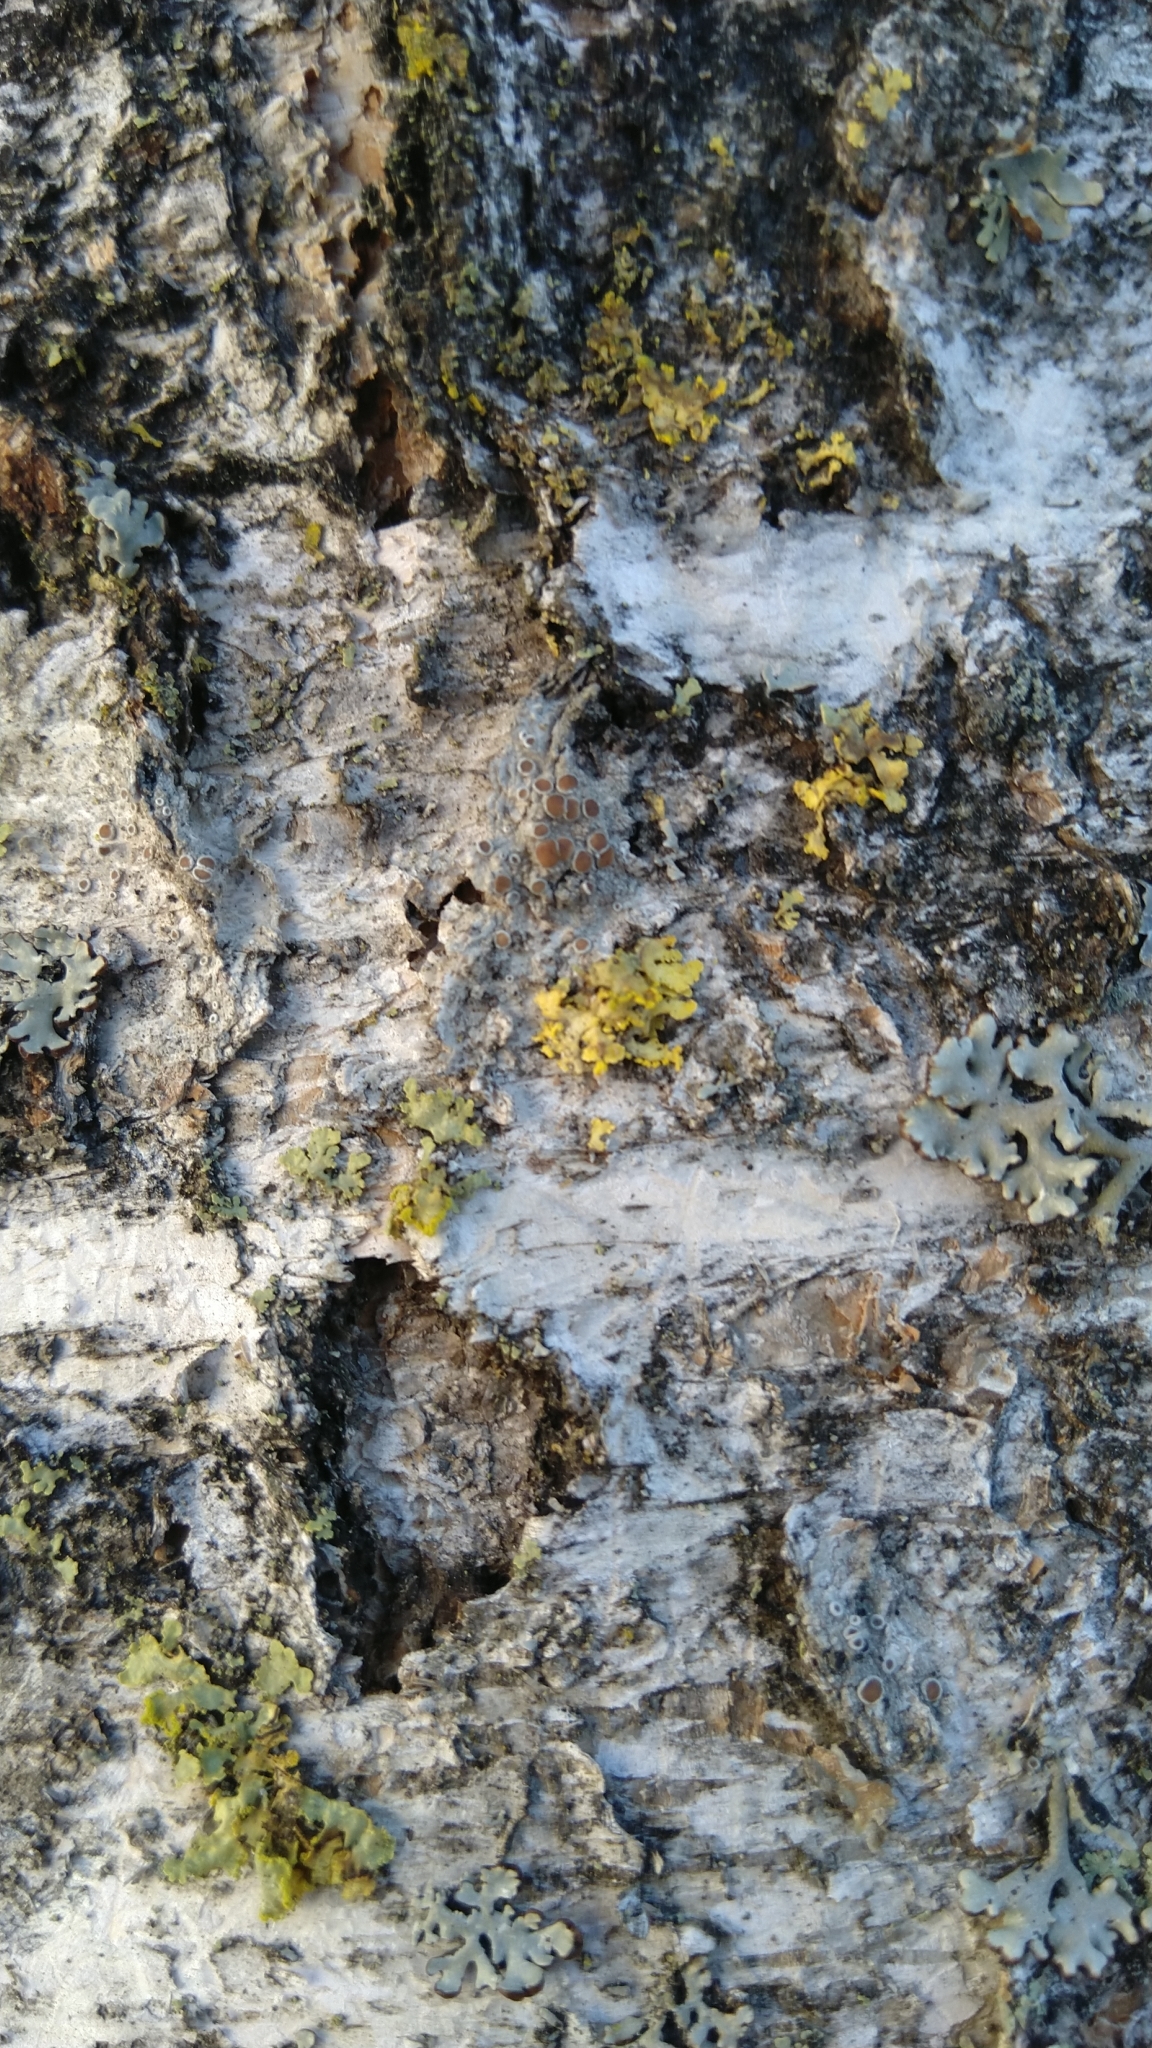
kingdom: Fungi
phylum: Ascomycota
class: Lecanoromycetes
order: Lecanorales
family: Parmeliaceae
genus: Vulpicida
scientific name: Vulpicida pinastri
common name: Powdered sunshine lichen
